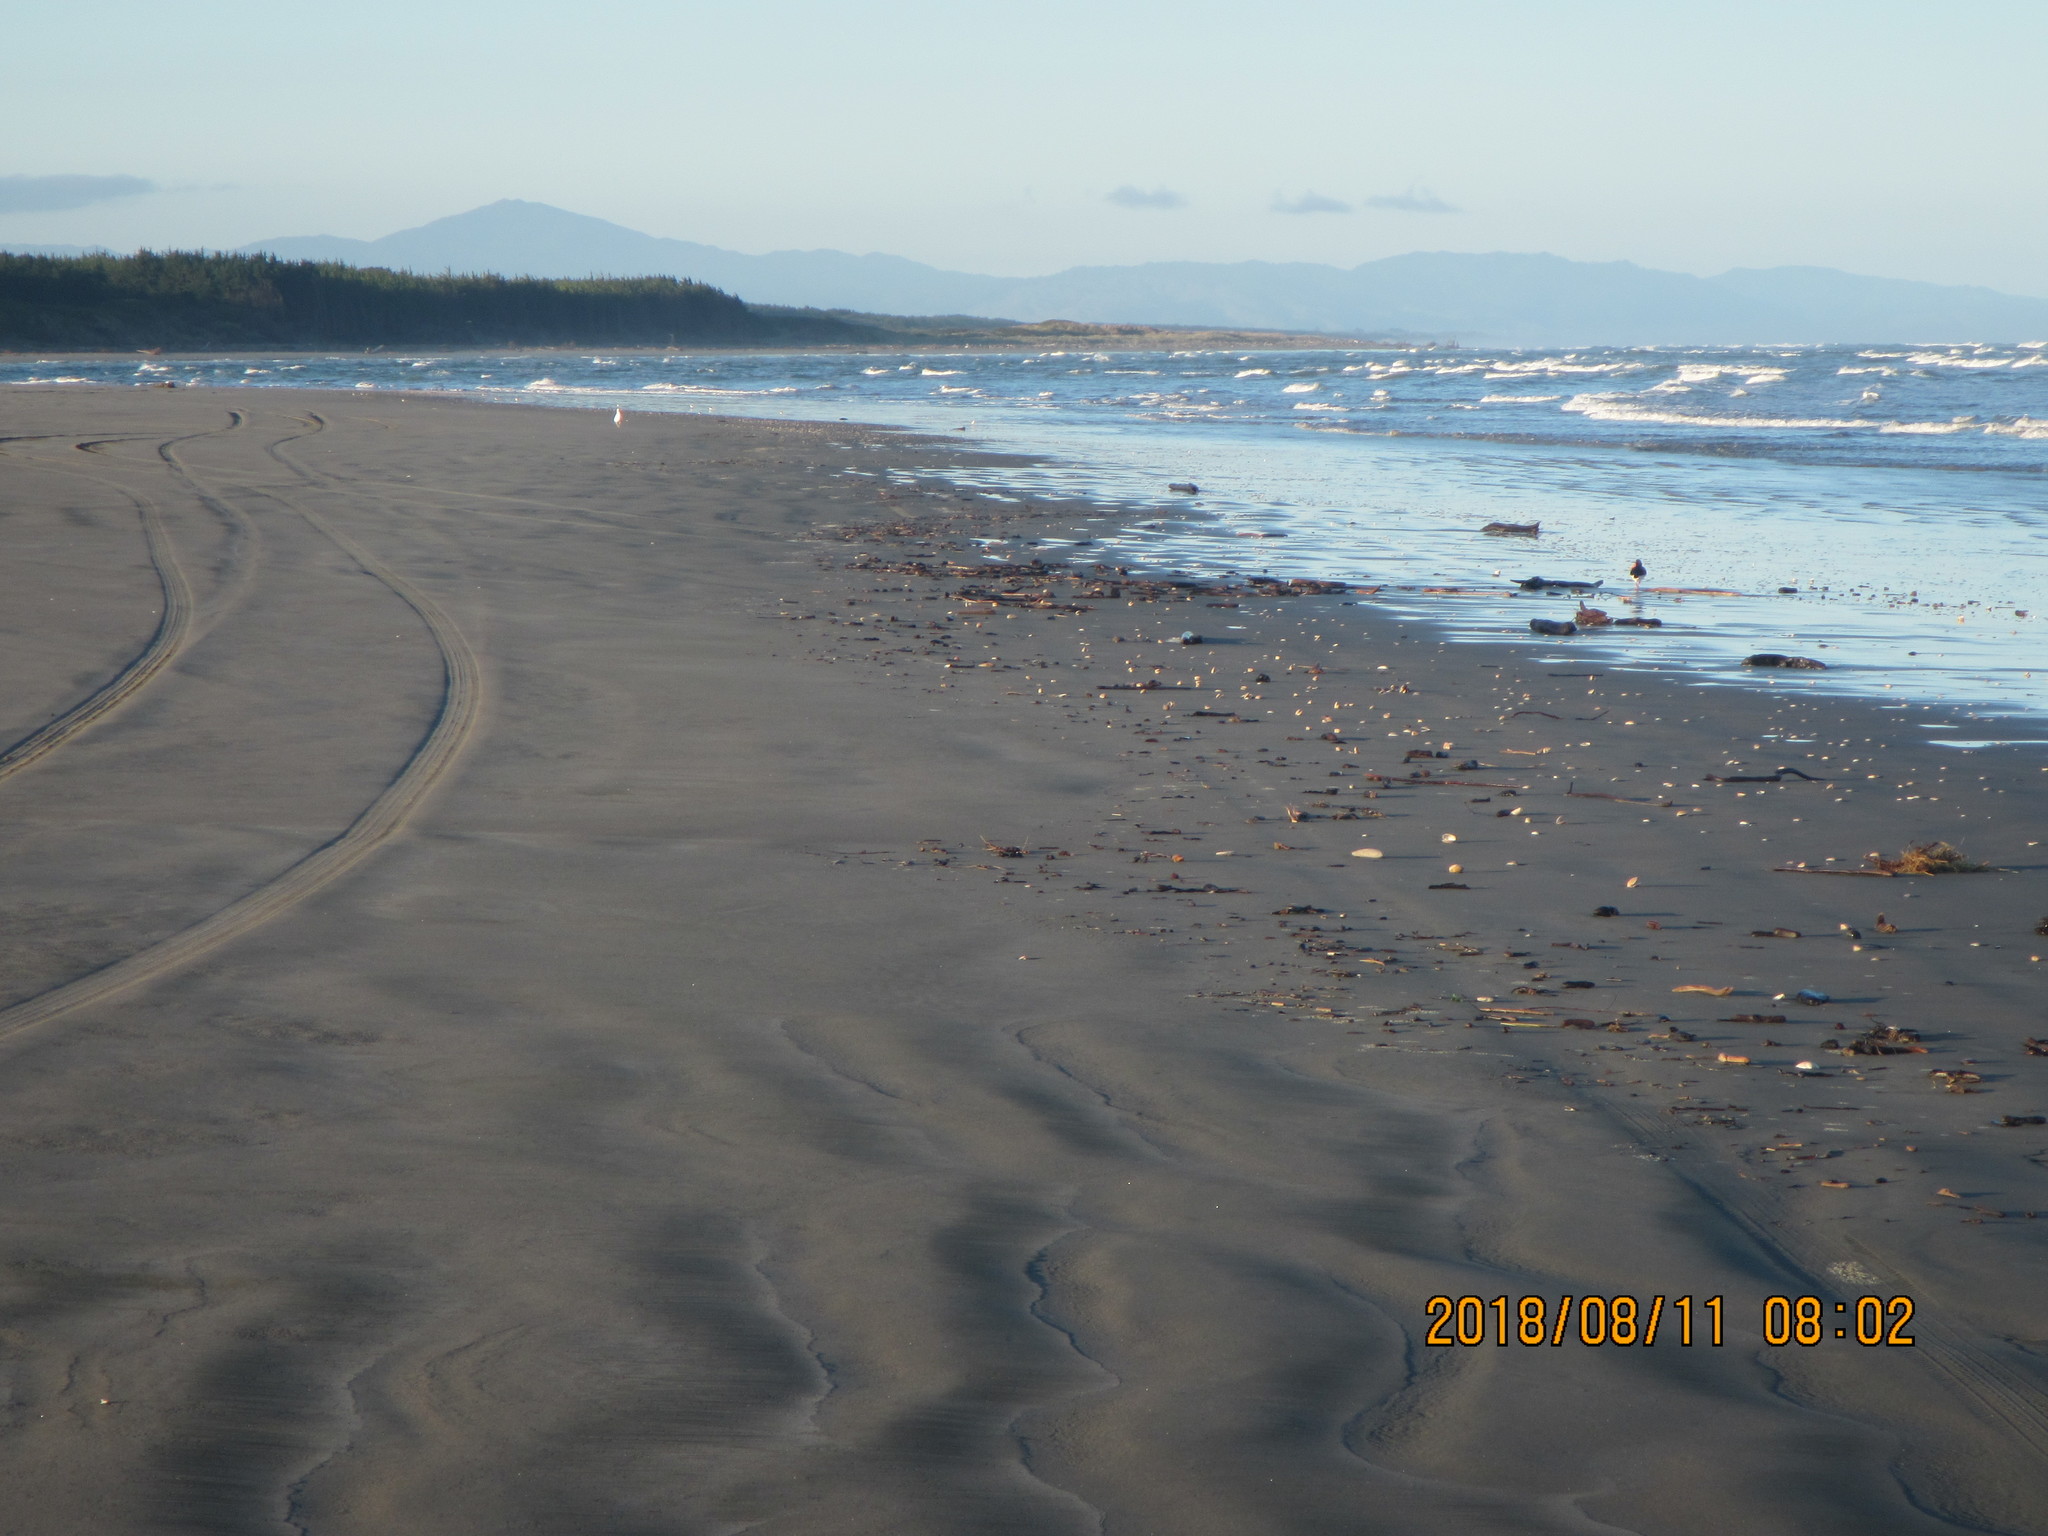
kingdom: Animalia
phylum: Chordata
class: Aves
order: Charadriiformes
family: Haematopodidae
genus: Haematopus
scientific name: Haematopus finschi
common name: South island oystercatcher
